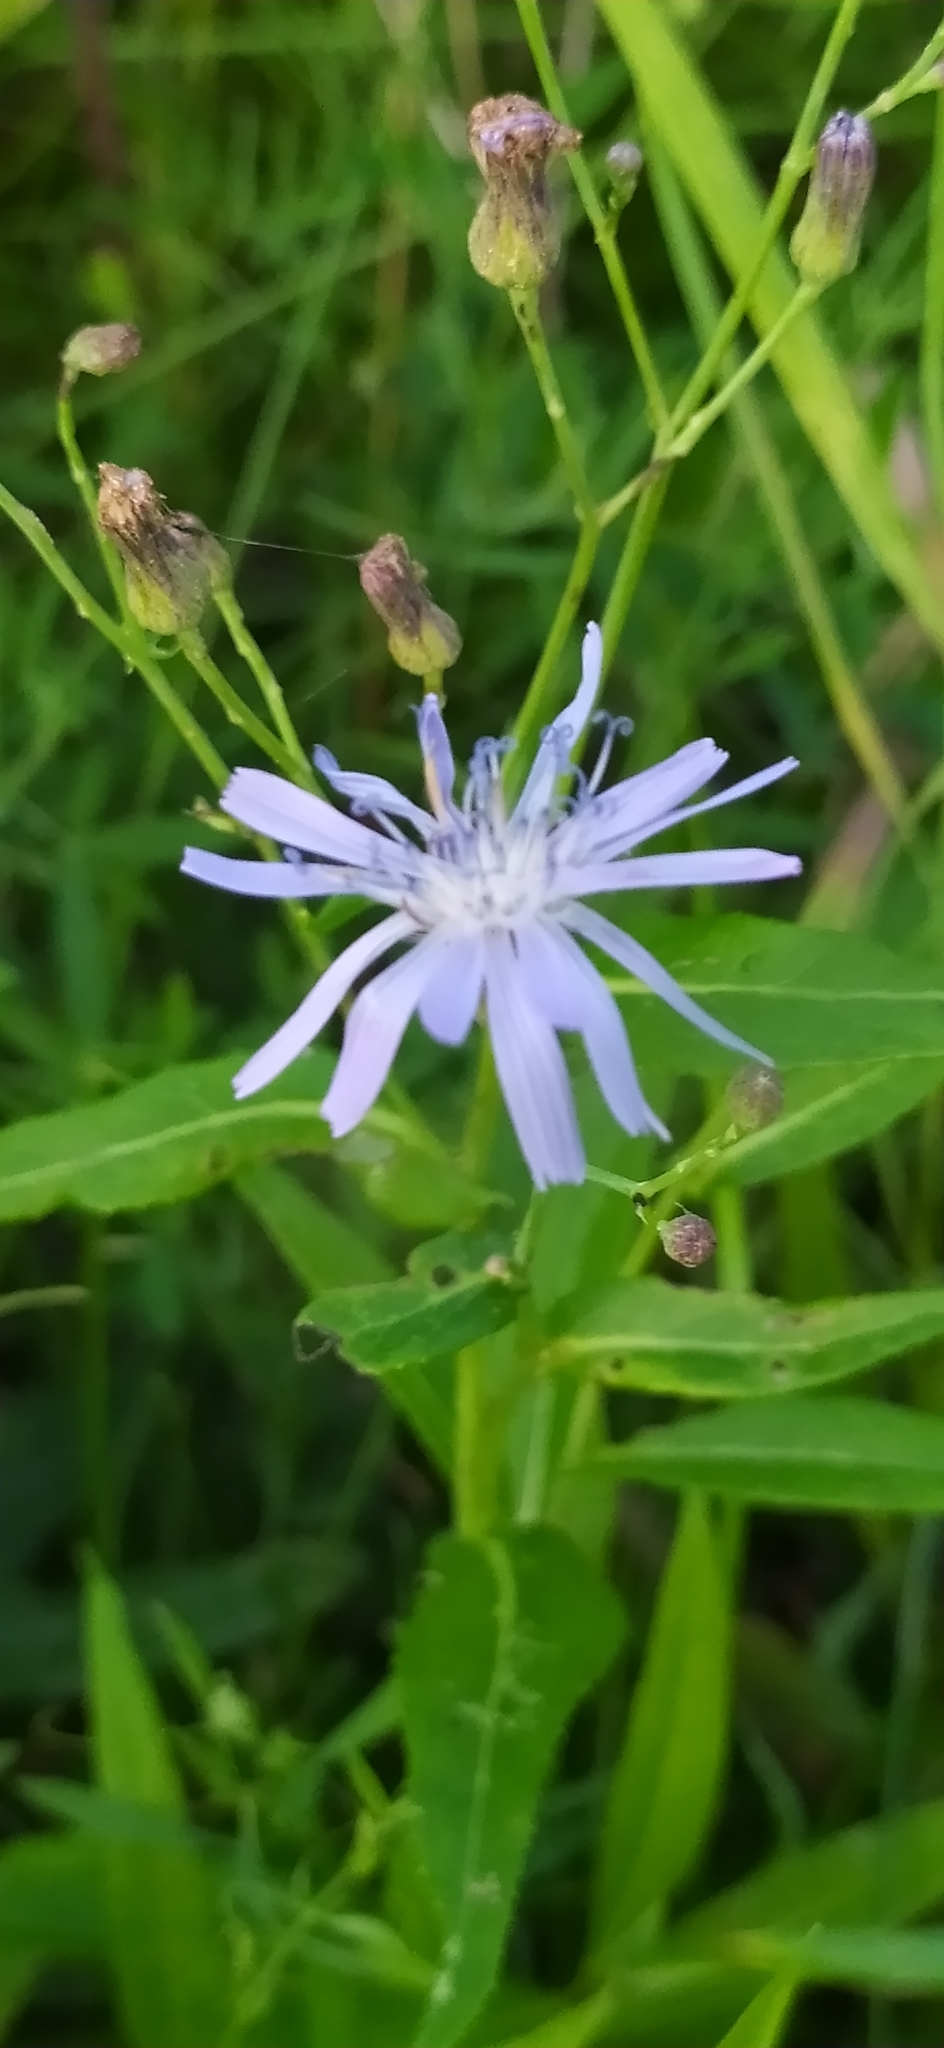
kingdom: Plantae
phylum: Tracheophyta
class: Magnoliopsida
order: Asterales
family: Asteraceae
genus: Lactuca
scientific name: Lactuca sibirica
